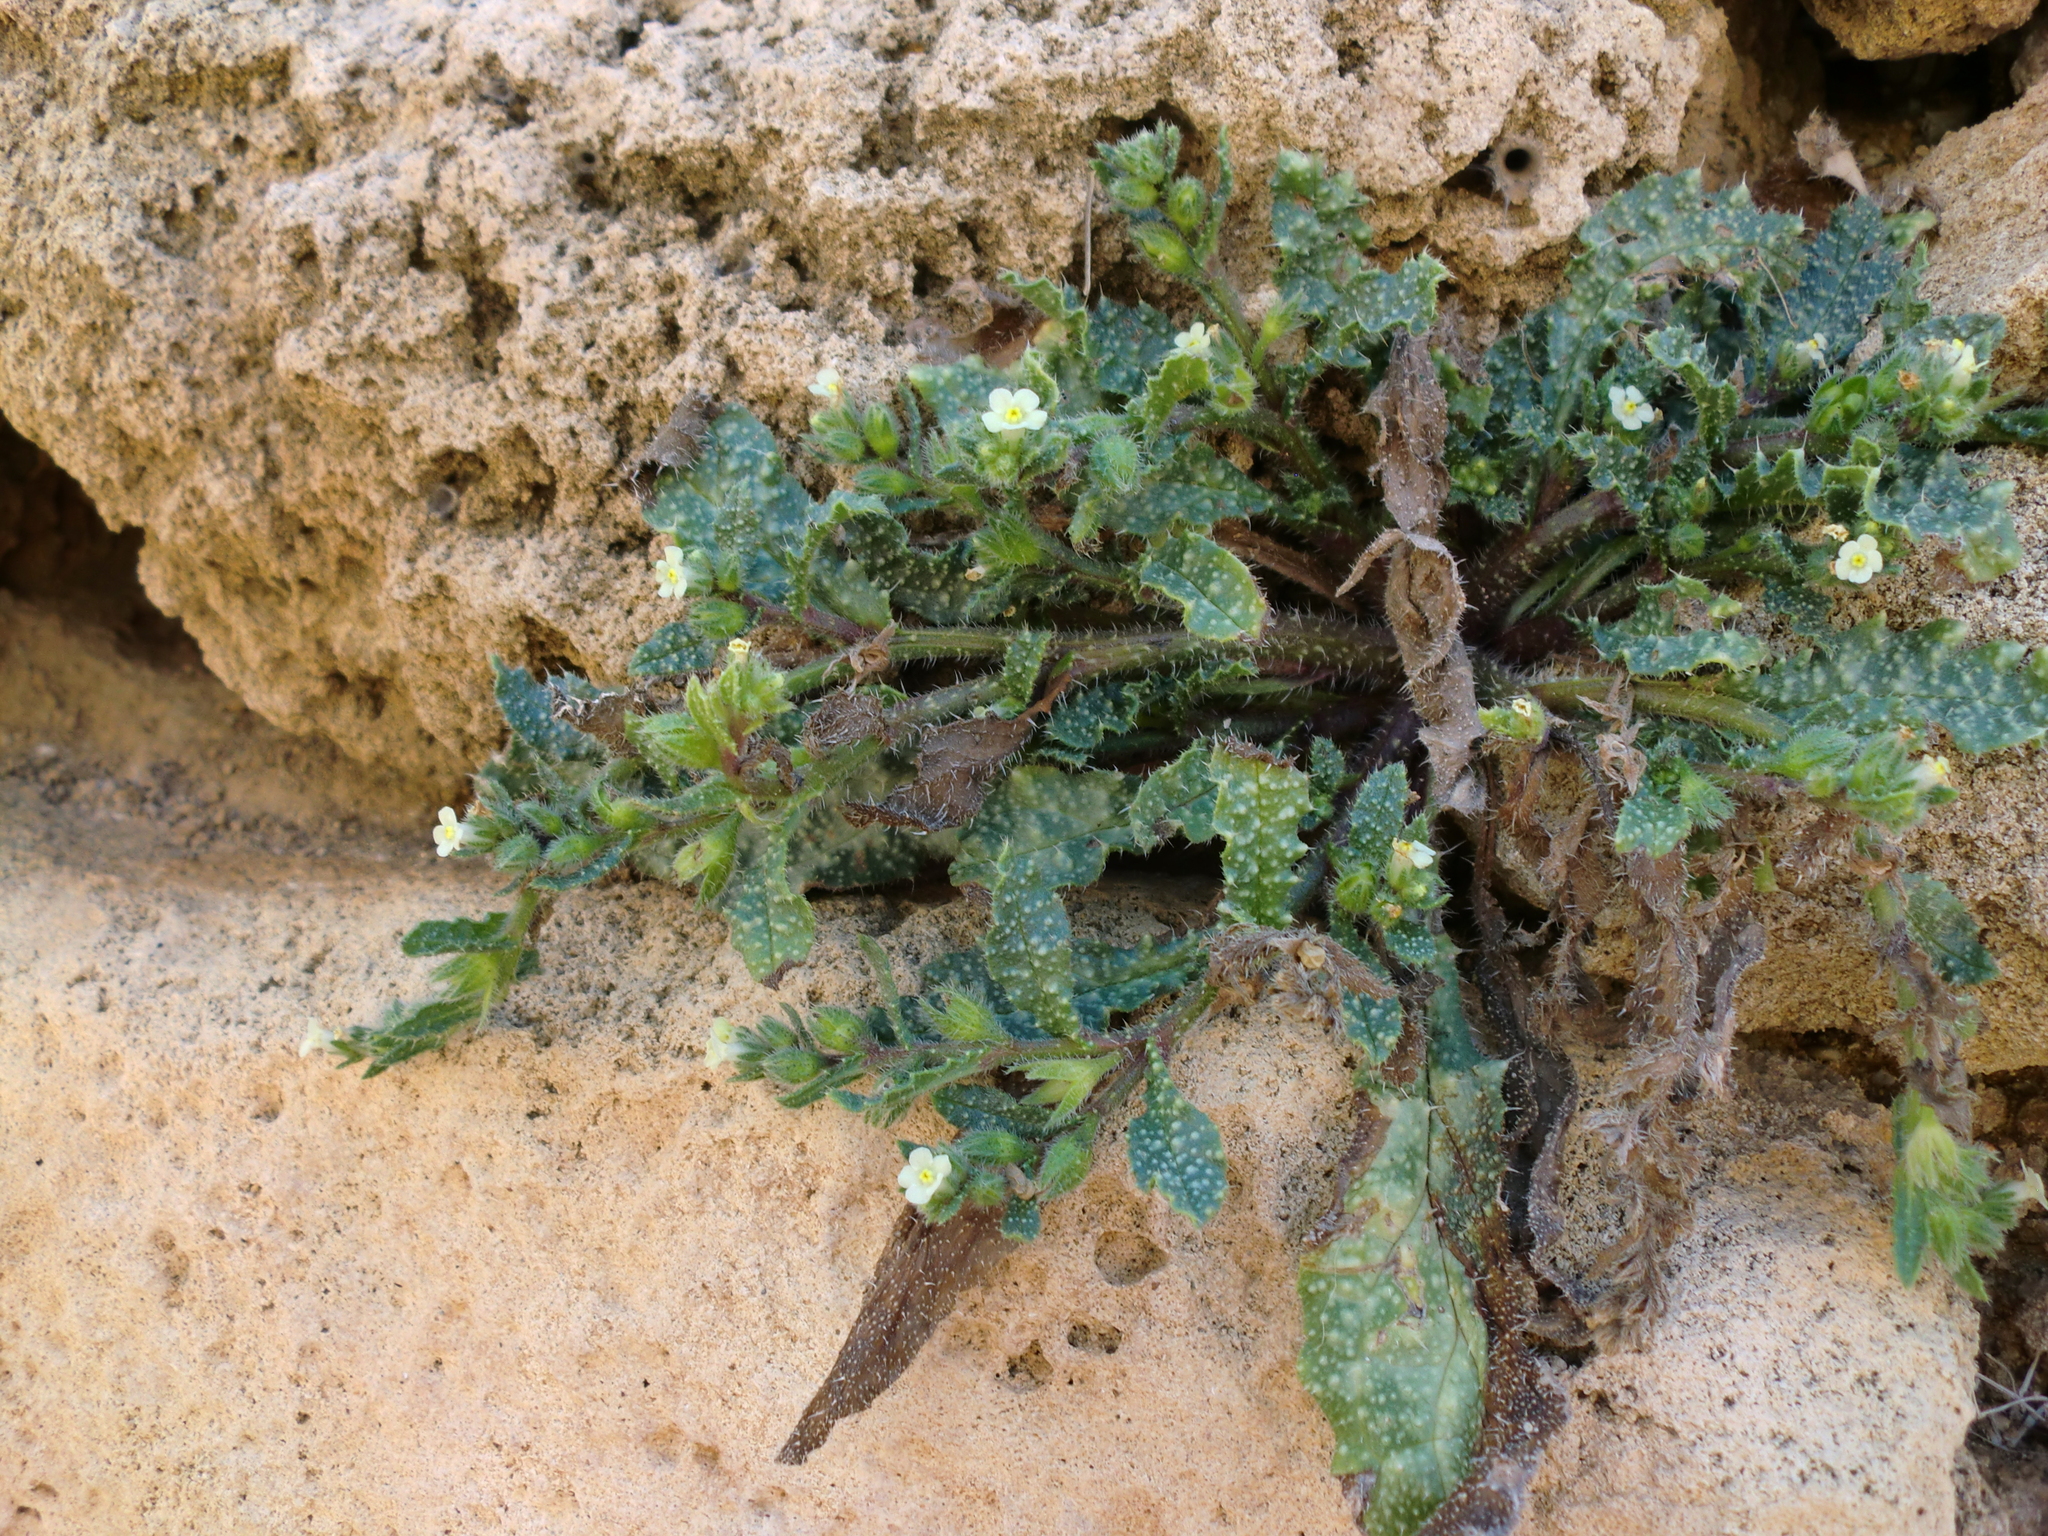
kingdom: Plantae
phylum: Tracheophyta
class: Magnoliopsida
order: Boraginales
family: Boraginaceae
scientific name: Boraginaceae
